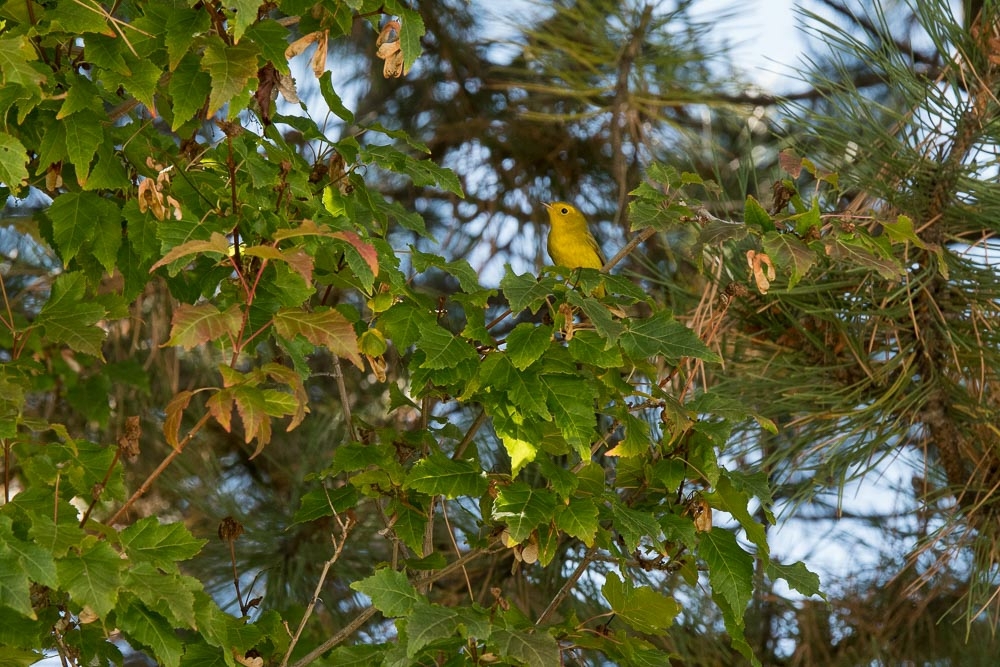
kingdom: Animalia
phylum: Chordata
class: Aves
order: Passeriformes
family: Parulidae
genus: Cardellina
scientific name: Cardellina pusilla
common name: Wilson's warbler
